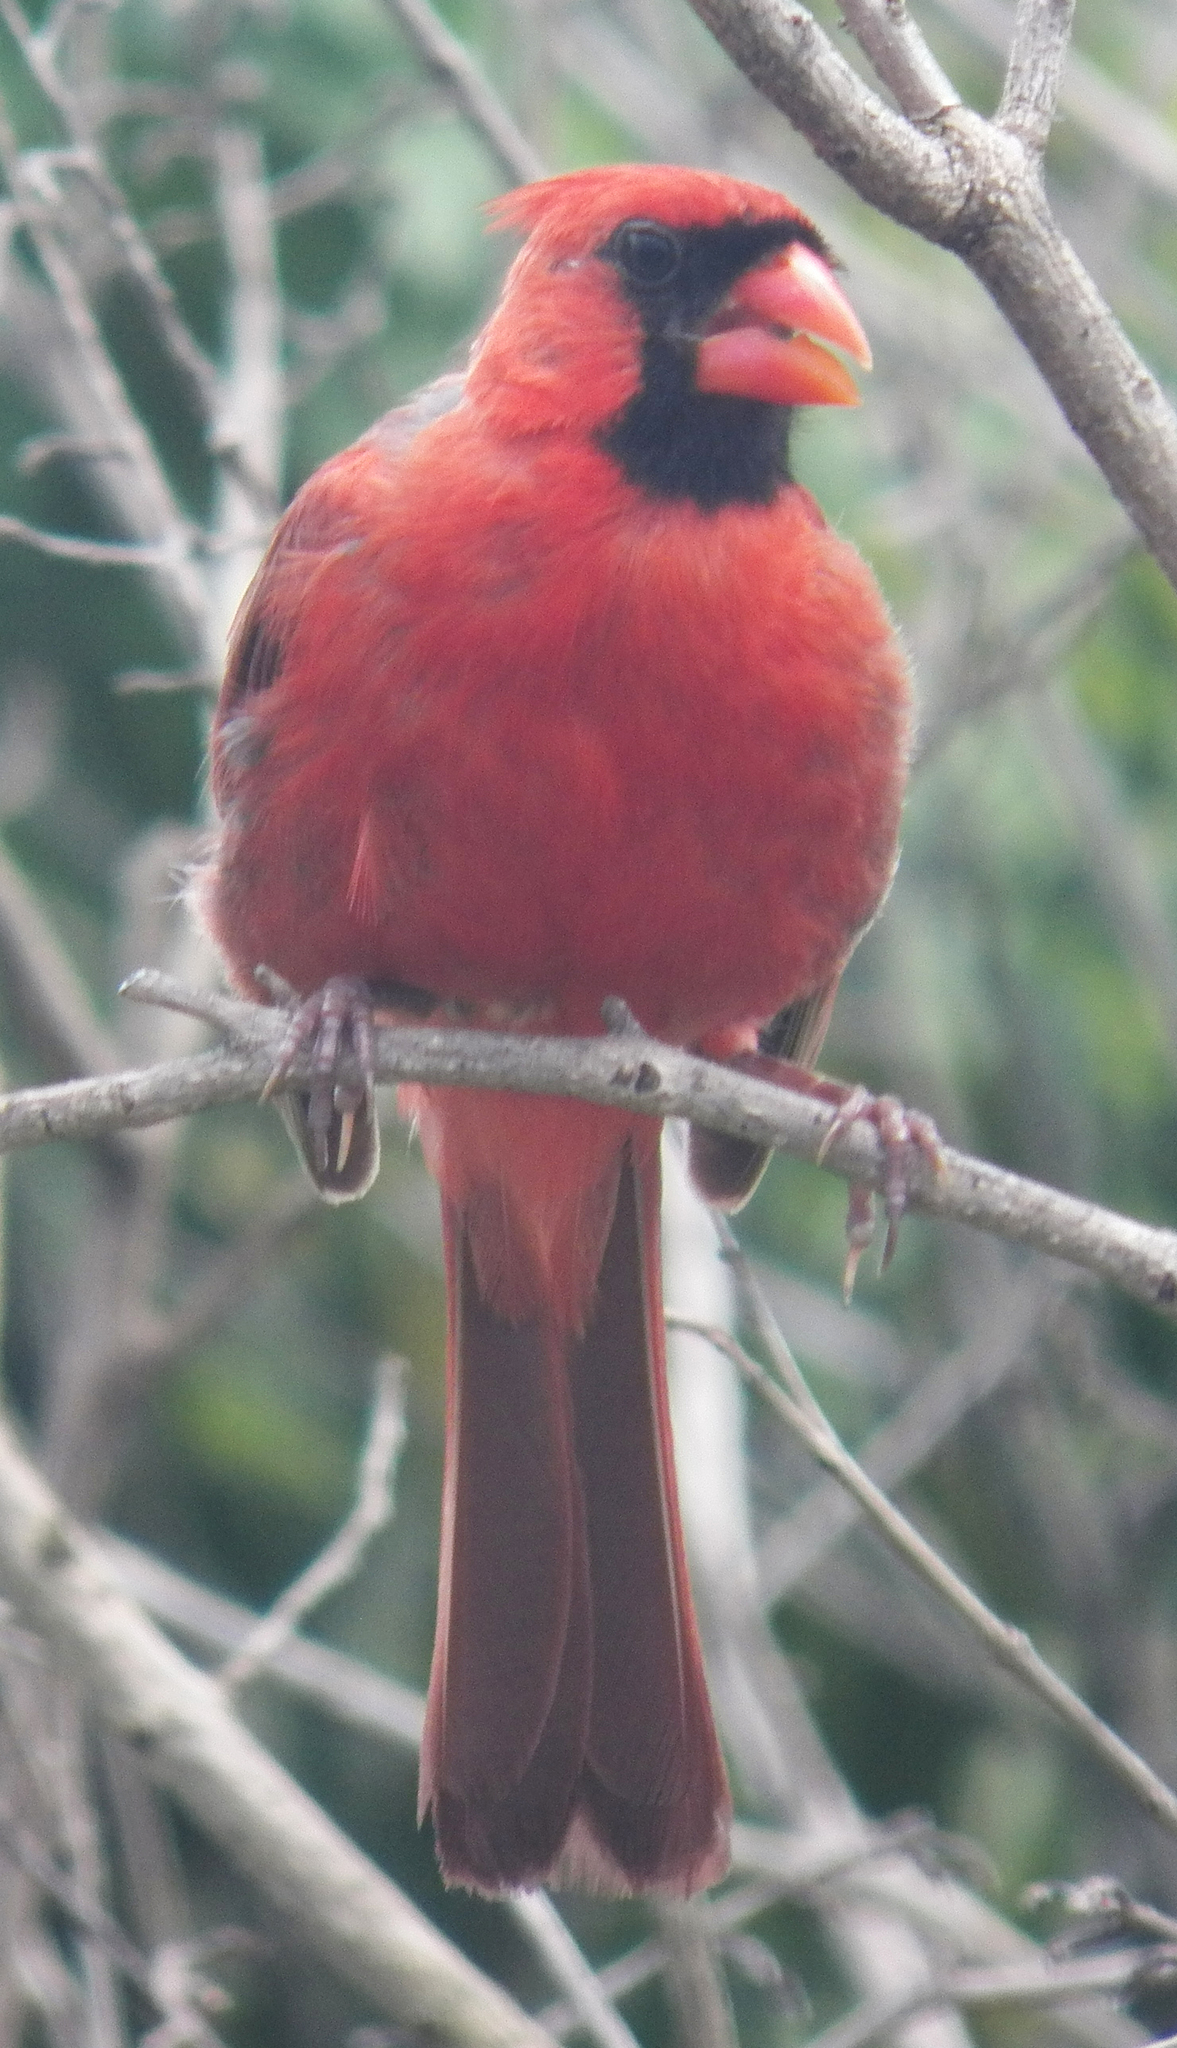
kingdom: Animalia
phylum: Chordata
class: Aves
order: Passeriformes
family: Cardinalidae
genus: Cardinalis
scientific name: Cardinalis cardinalis
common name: Northern cardinal
